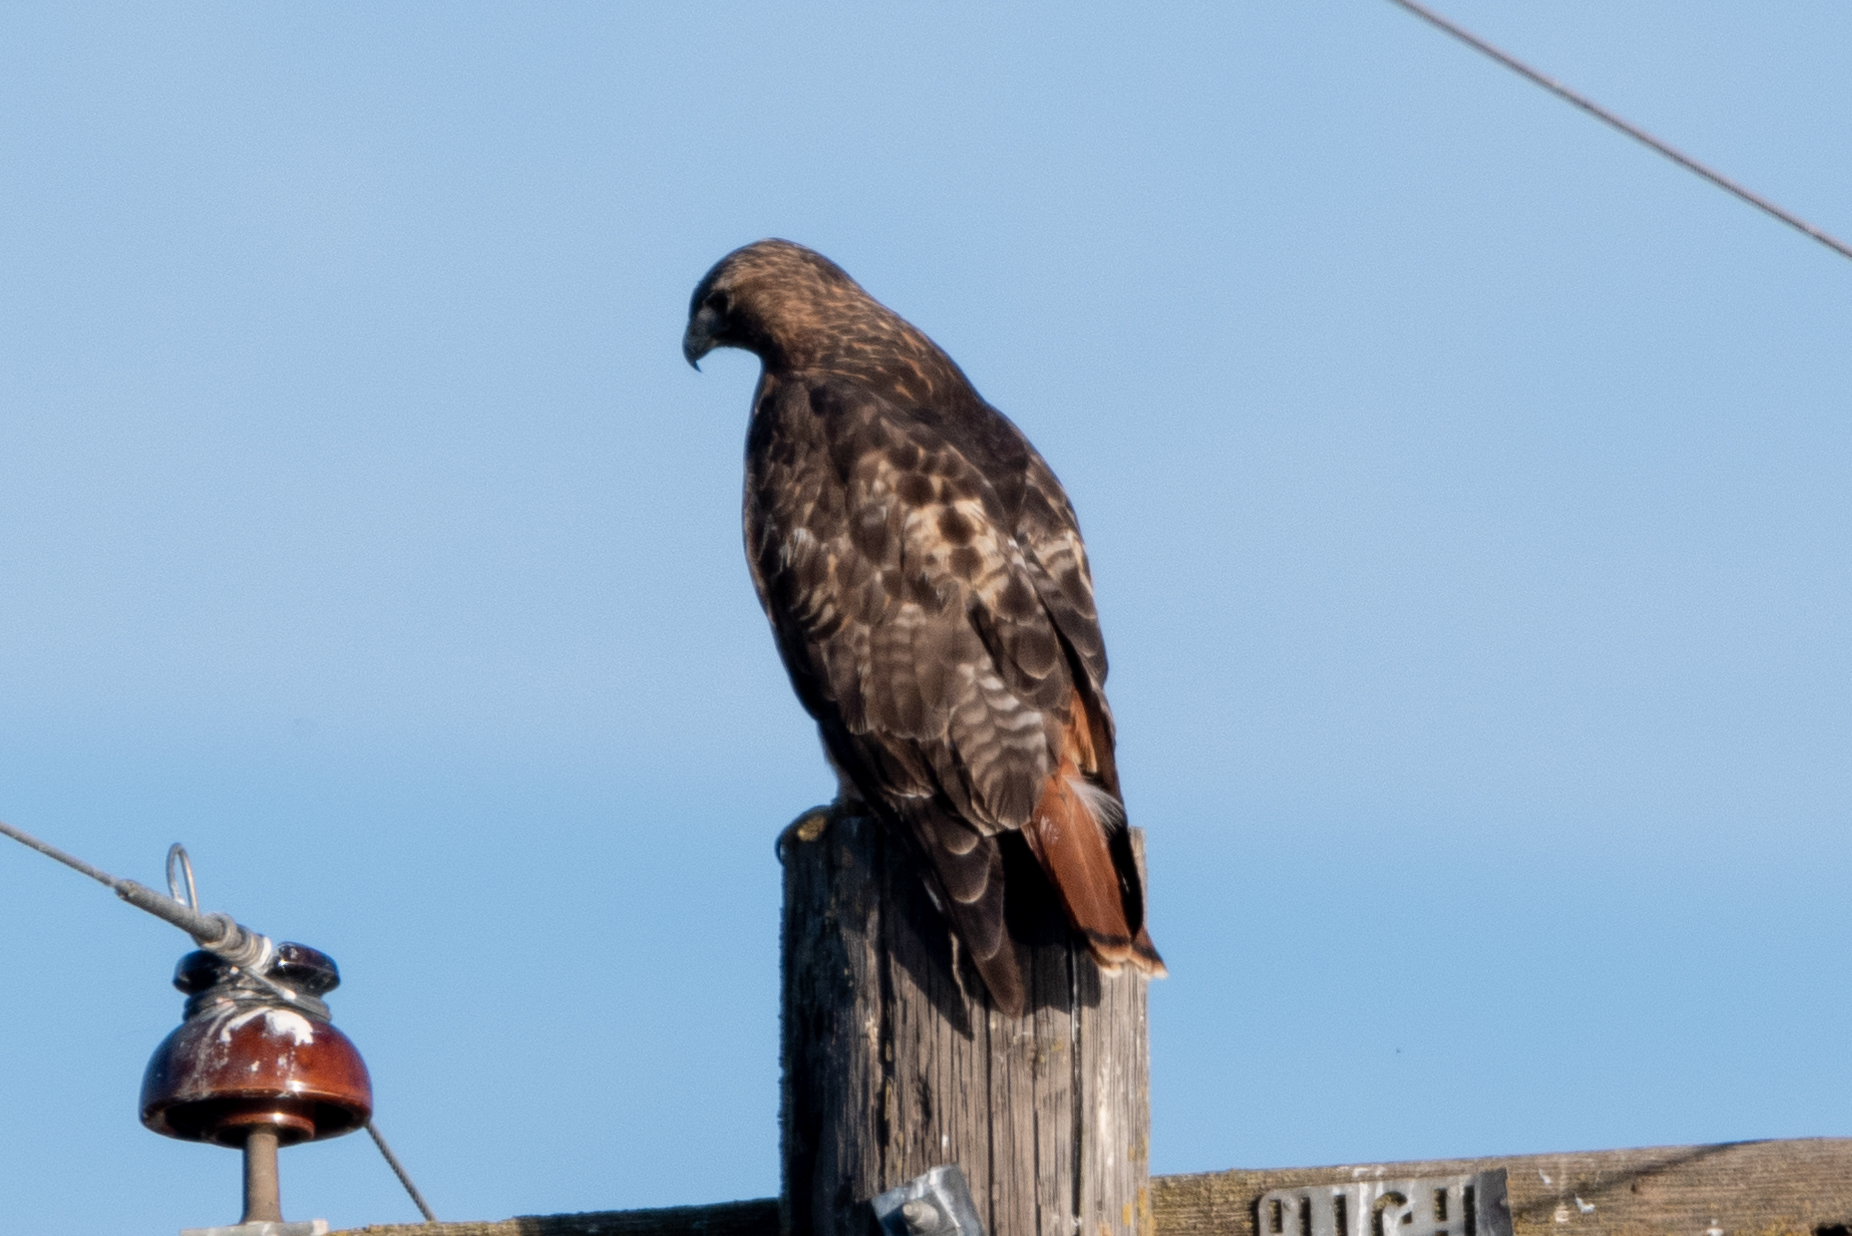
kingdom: Animalia
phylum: Chordata
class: Aves
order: Accipitriformes
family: Accipitridae
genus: Buteo
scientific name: Buteo jamaicensis
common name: Red-tailed hawk
